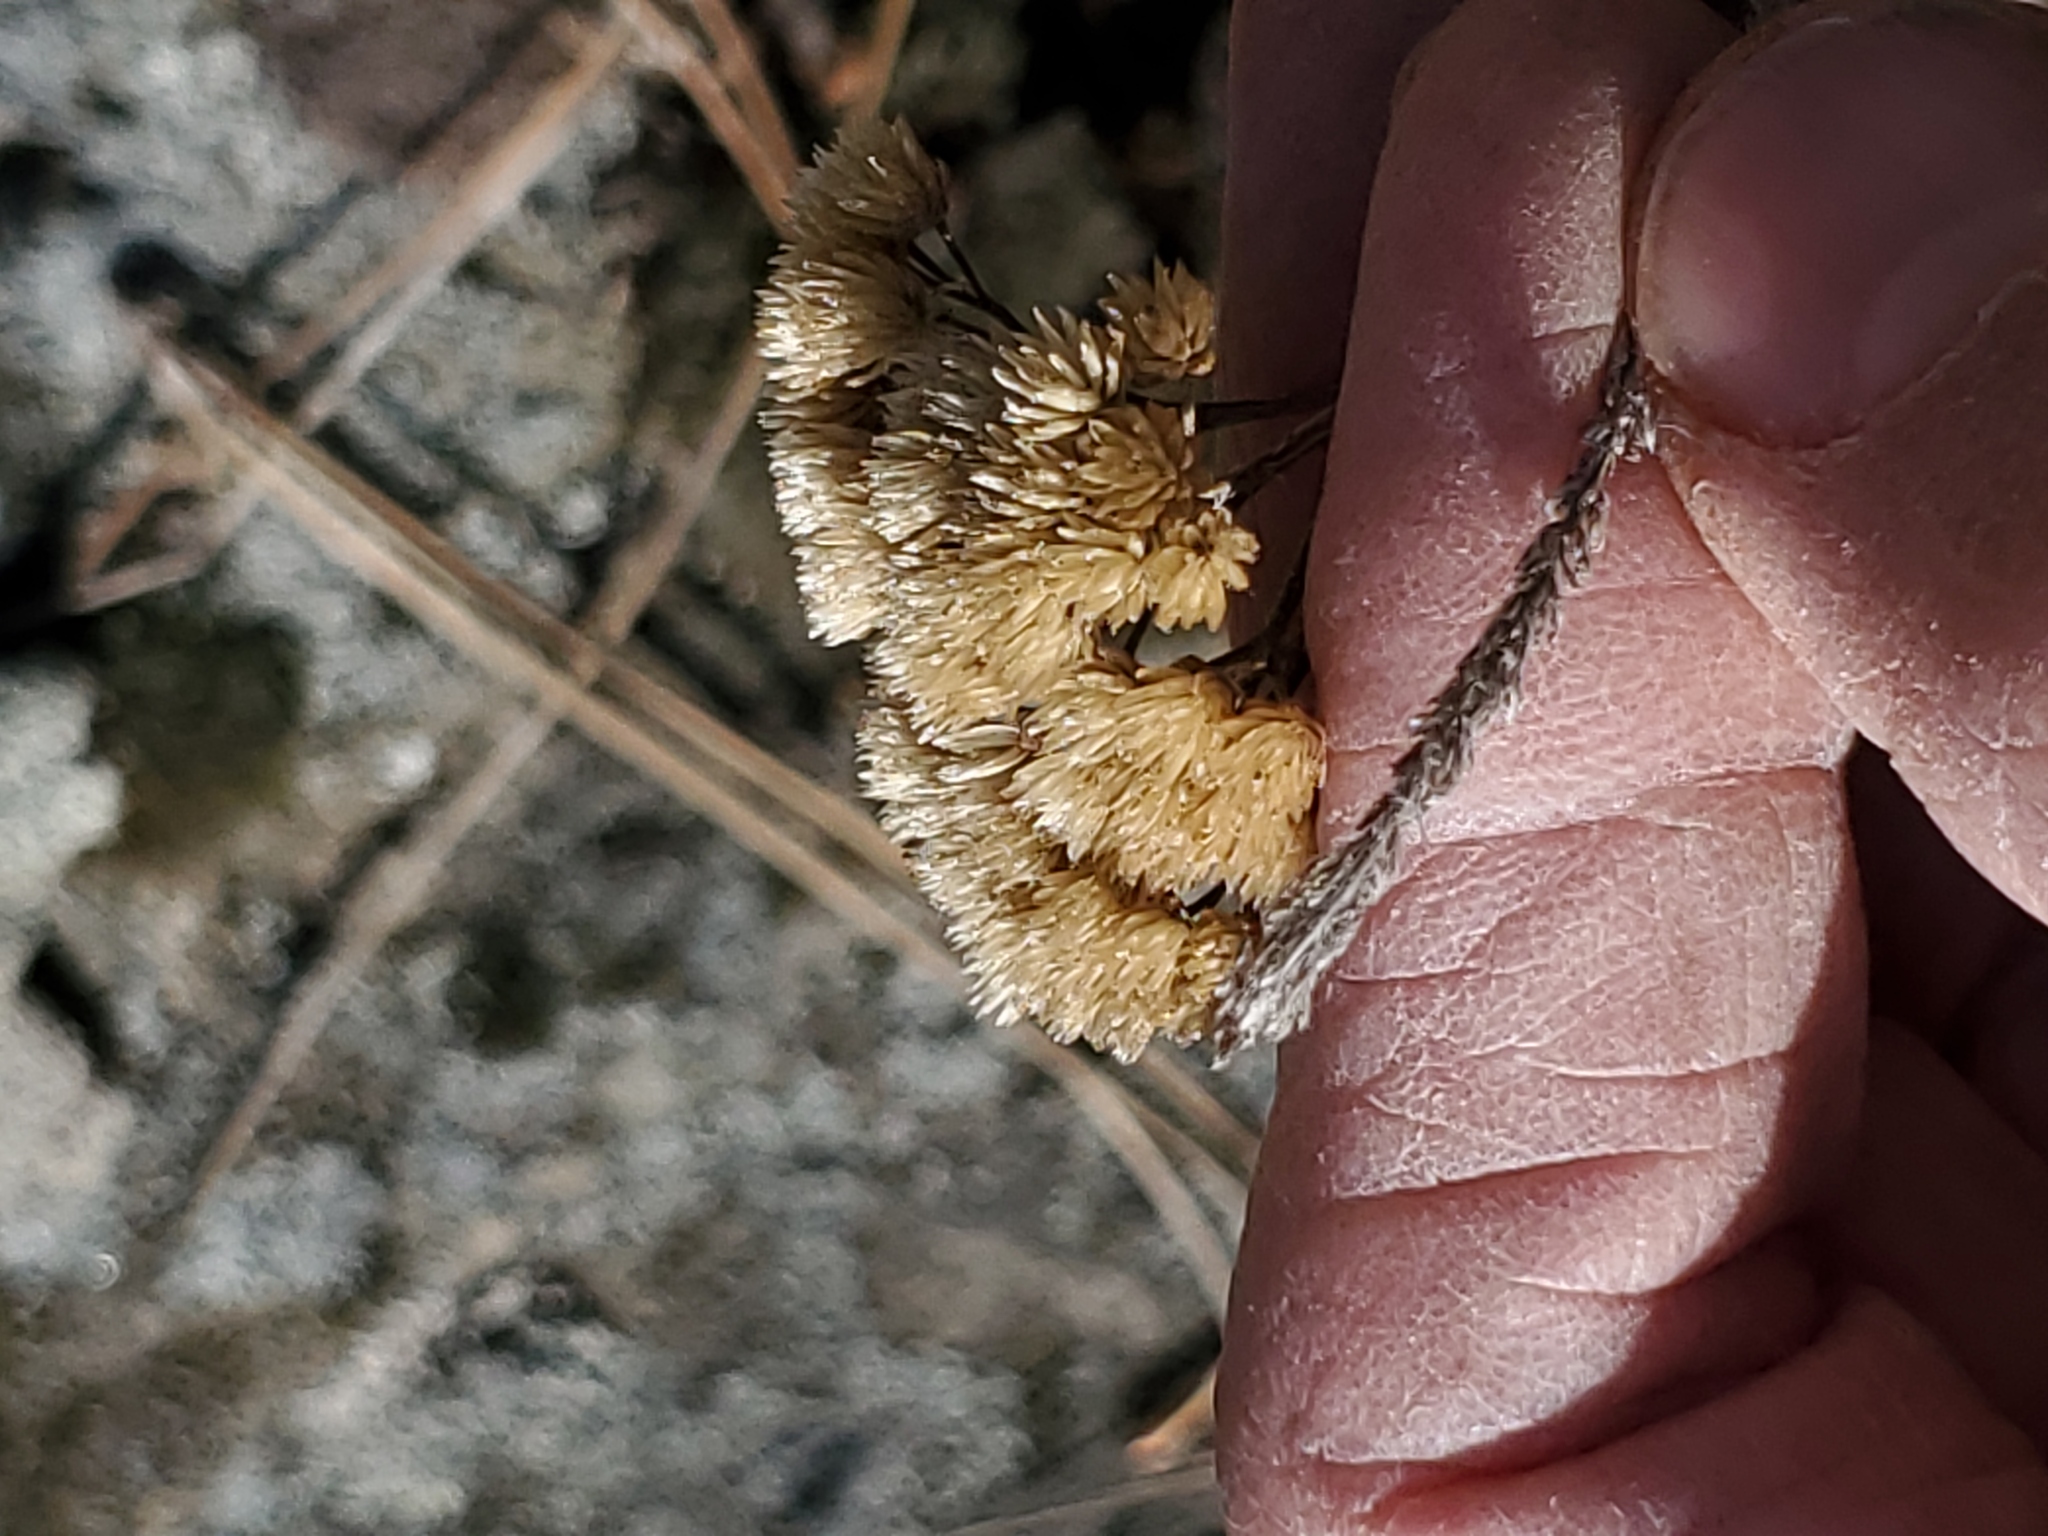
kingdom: Plantae
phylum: Tracheophyta
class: Magnoliopsida
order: Asterales
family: Asteraceae
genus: Achillea
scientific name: Achillea millefolium
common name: Yarrow
